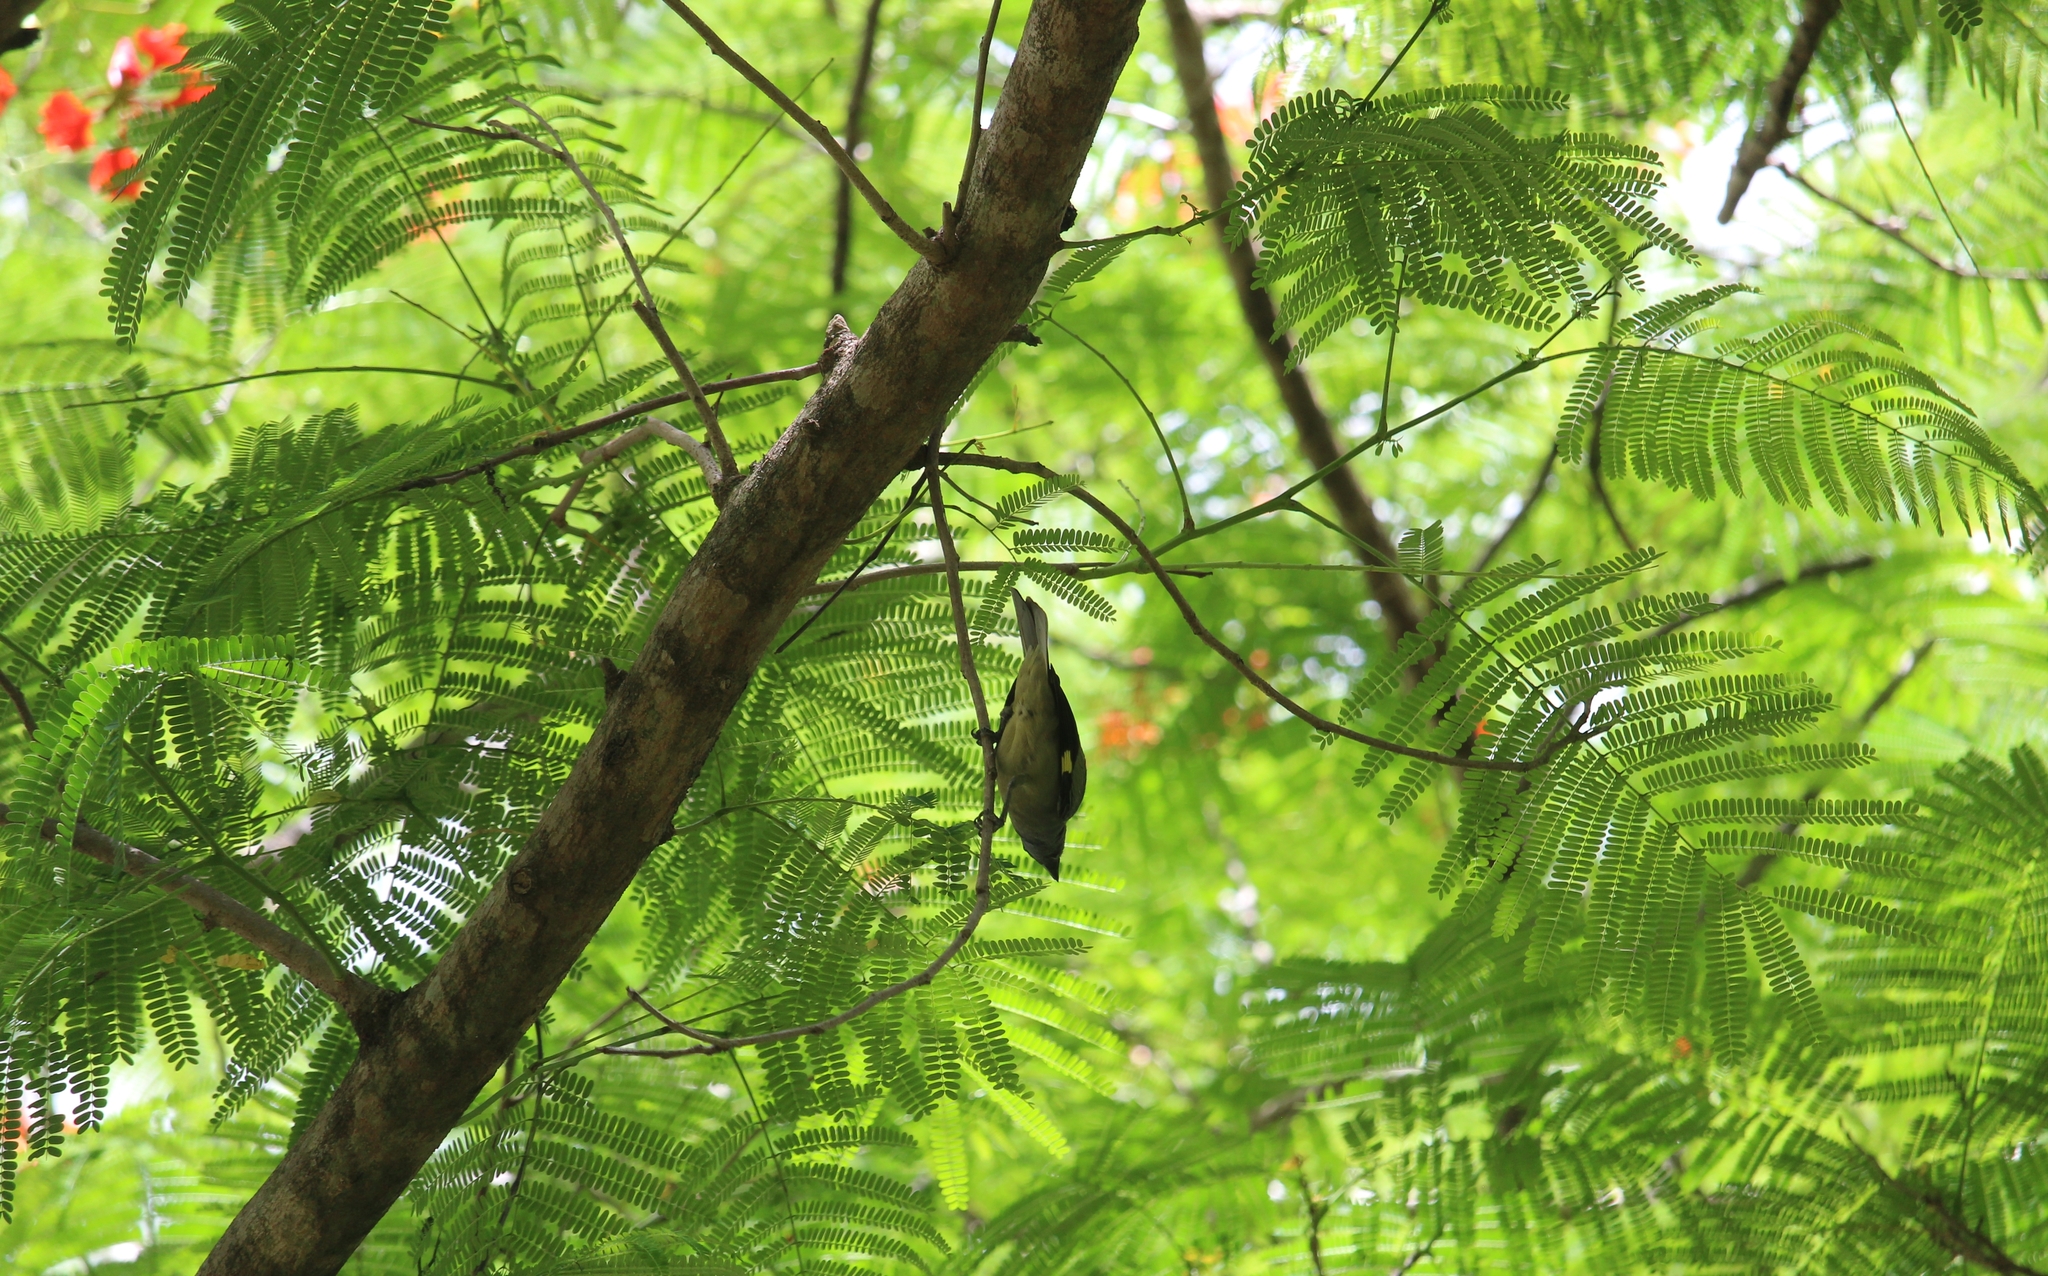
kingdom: Animalia
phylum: Chordata
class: Aves
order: Passeriformes
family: Thraupidae
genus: Thraupis
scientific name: Thraupis abbas
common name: Yellow-winged tanager
